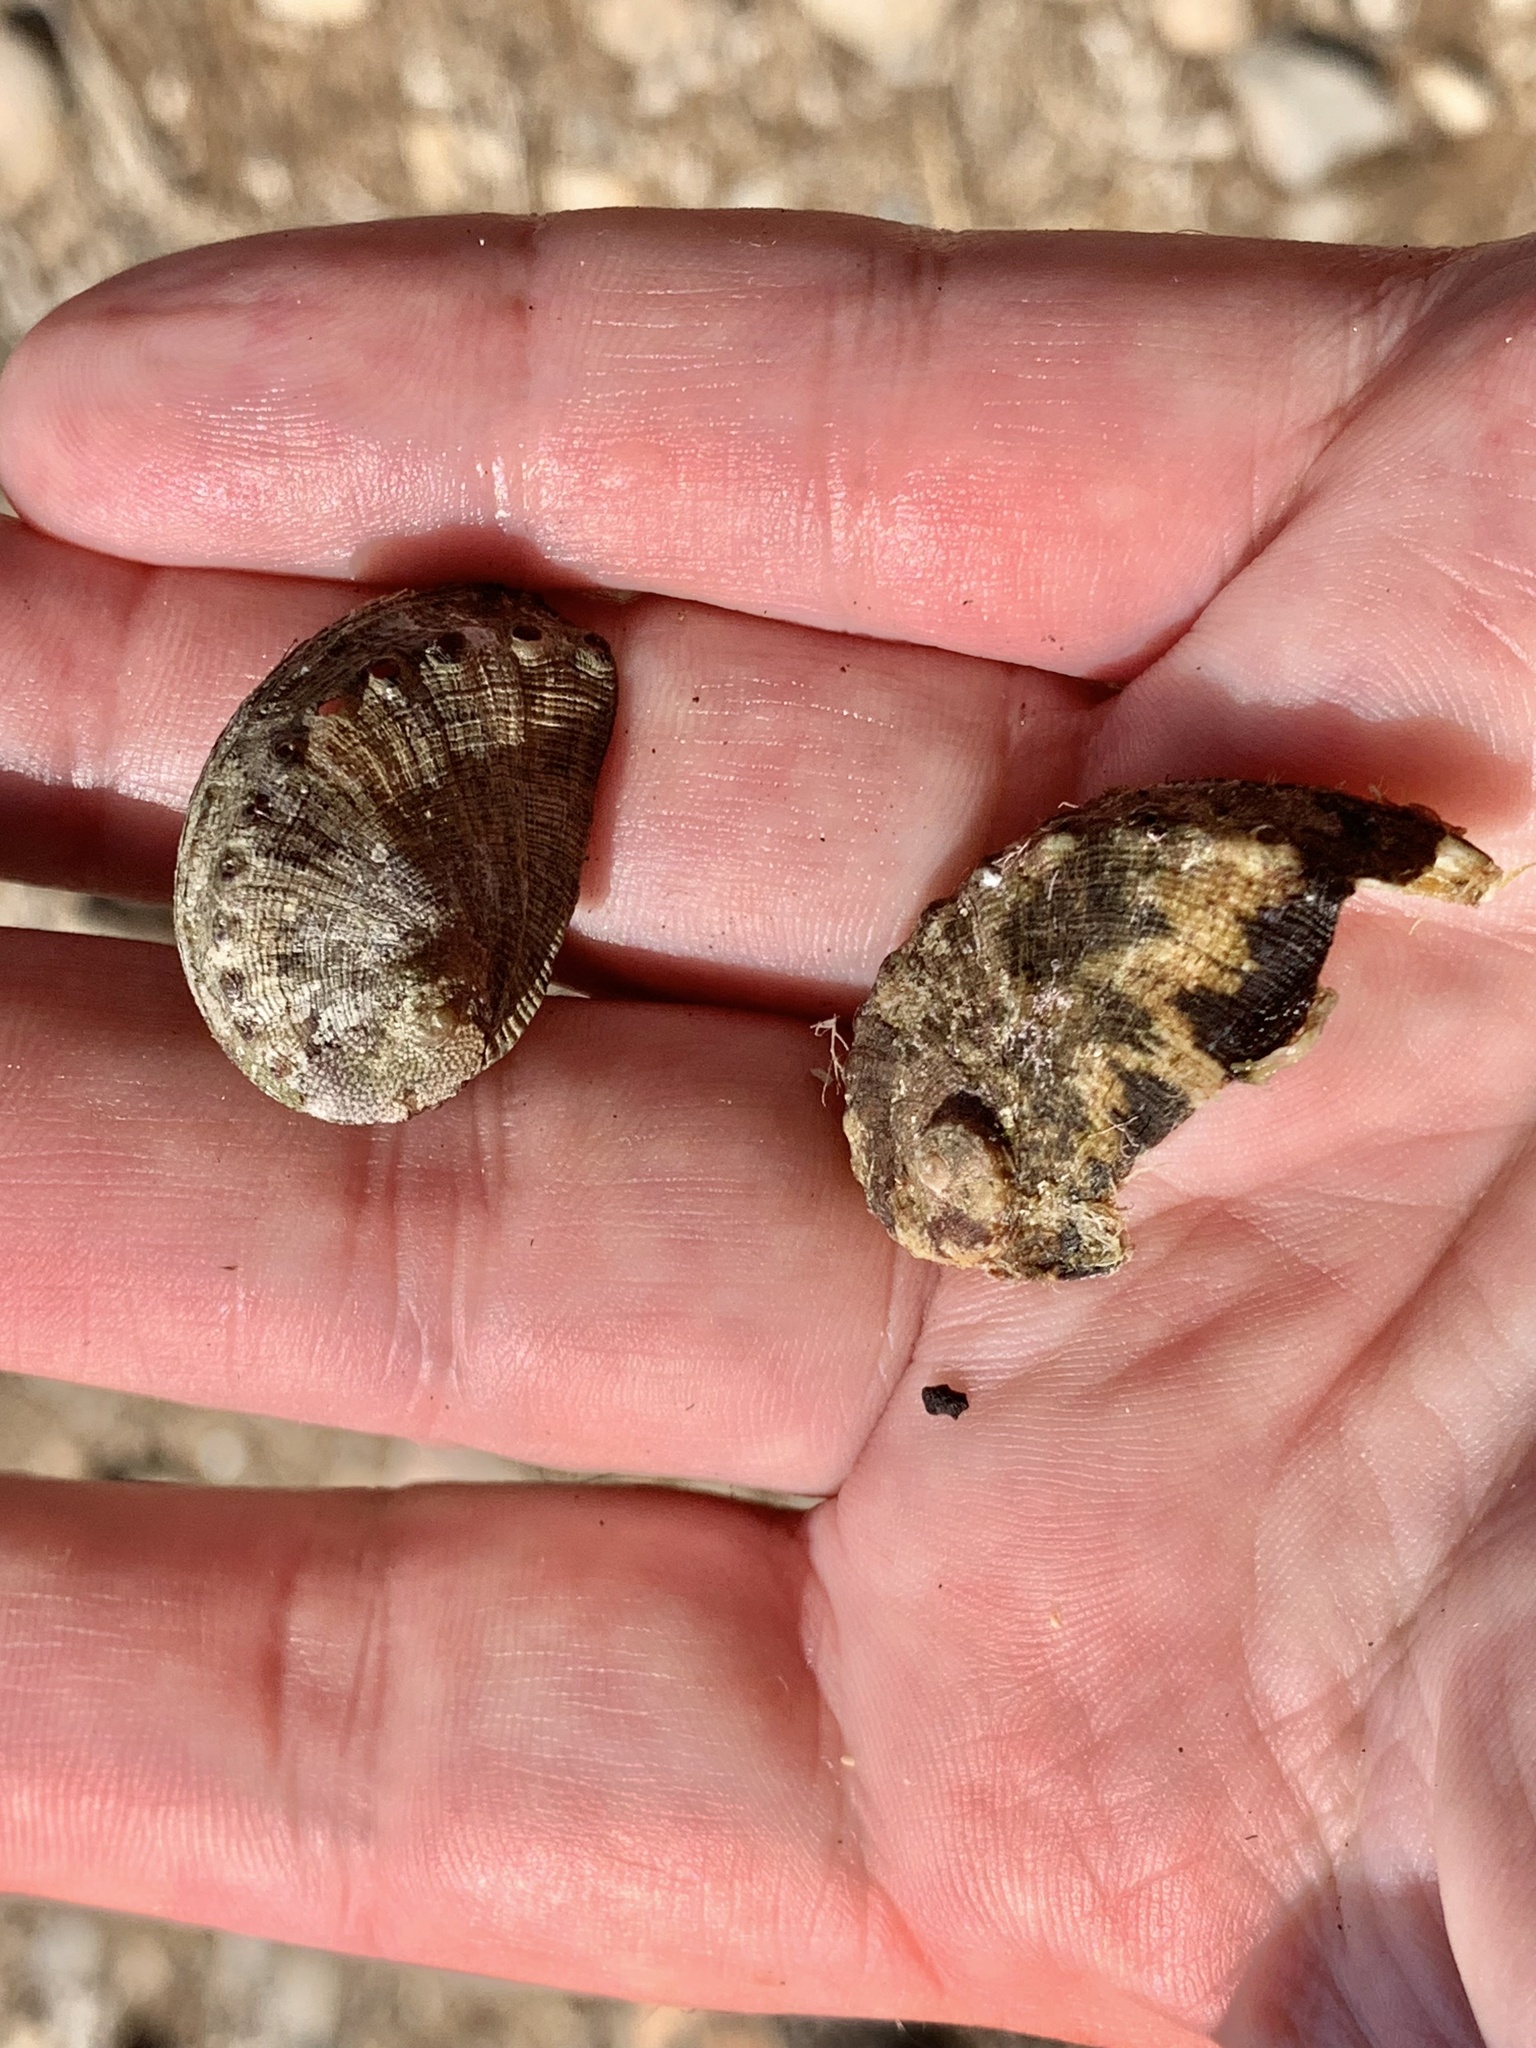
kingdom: Animalia
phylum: Mollusca
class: Gastropoda
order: Lepetellida
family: Haliotidae
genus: Haliotis
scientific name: Haliotis tuberculata
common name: Green ormer
